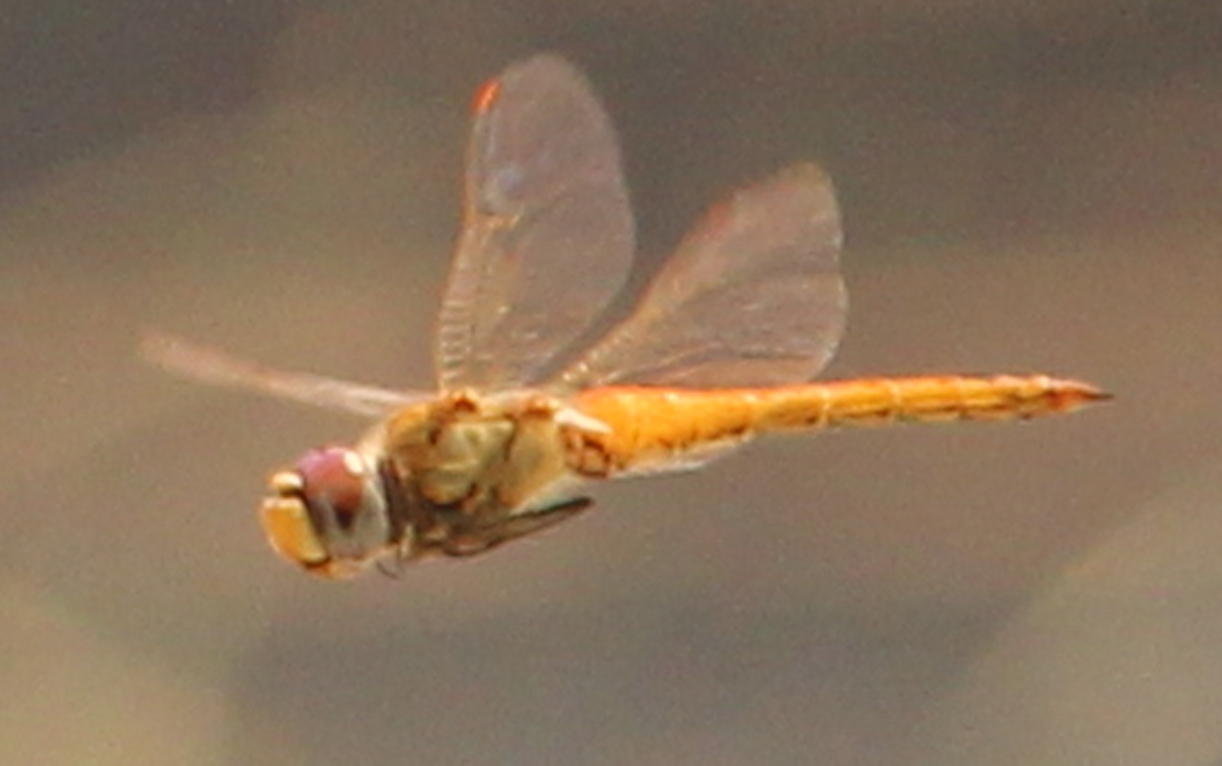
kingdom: Animalia
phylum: Arthropoda
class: Insecta
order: Odonata
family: Libellulidae
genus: Pantala
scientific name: Pantala flavescens
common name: Wandering glider
